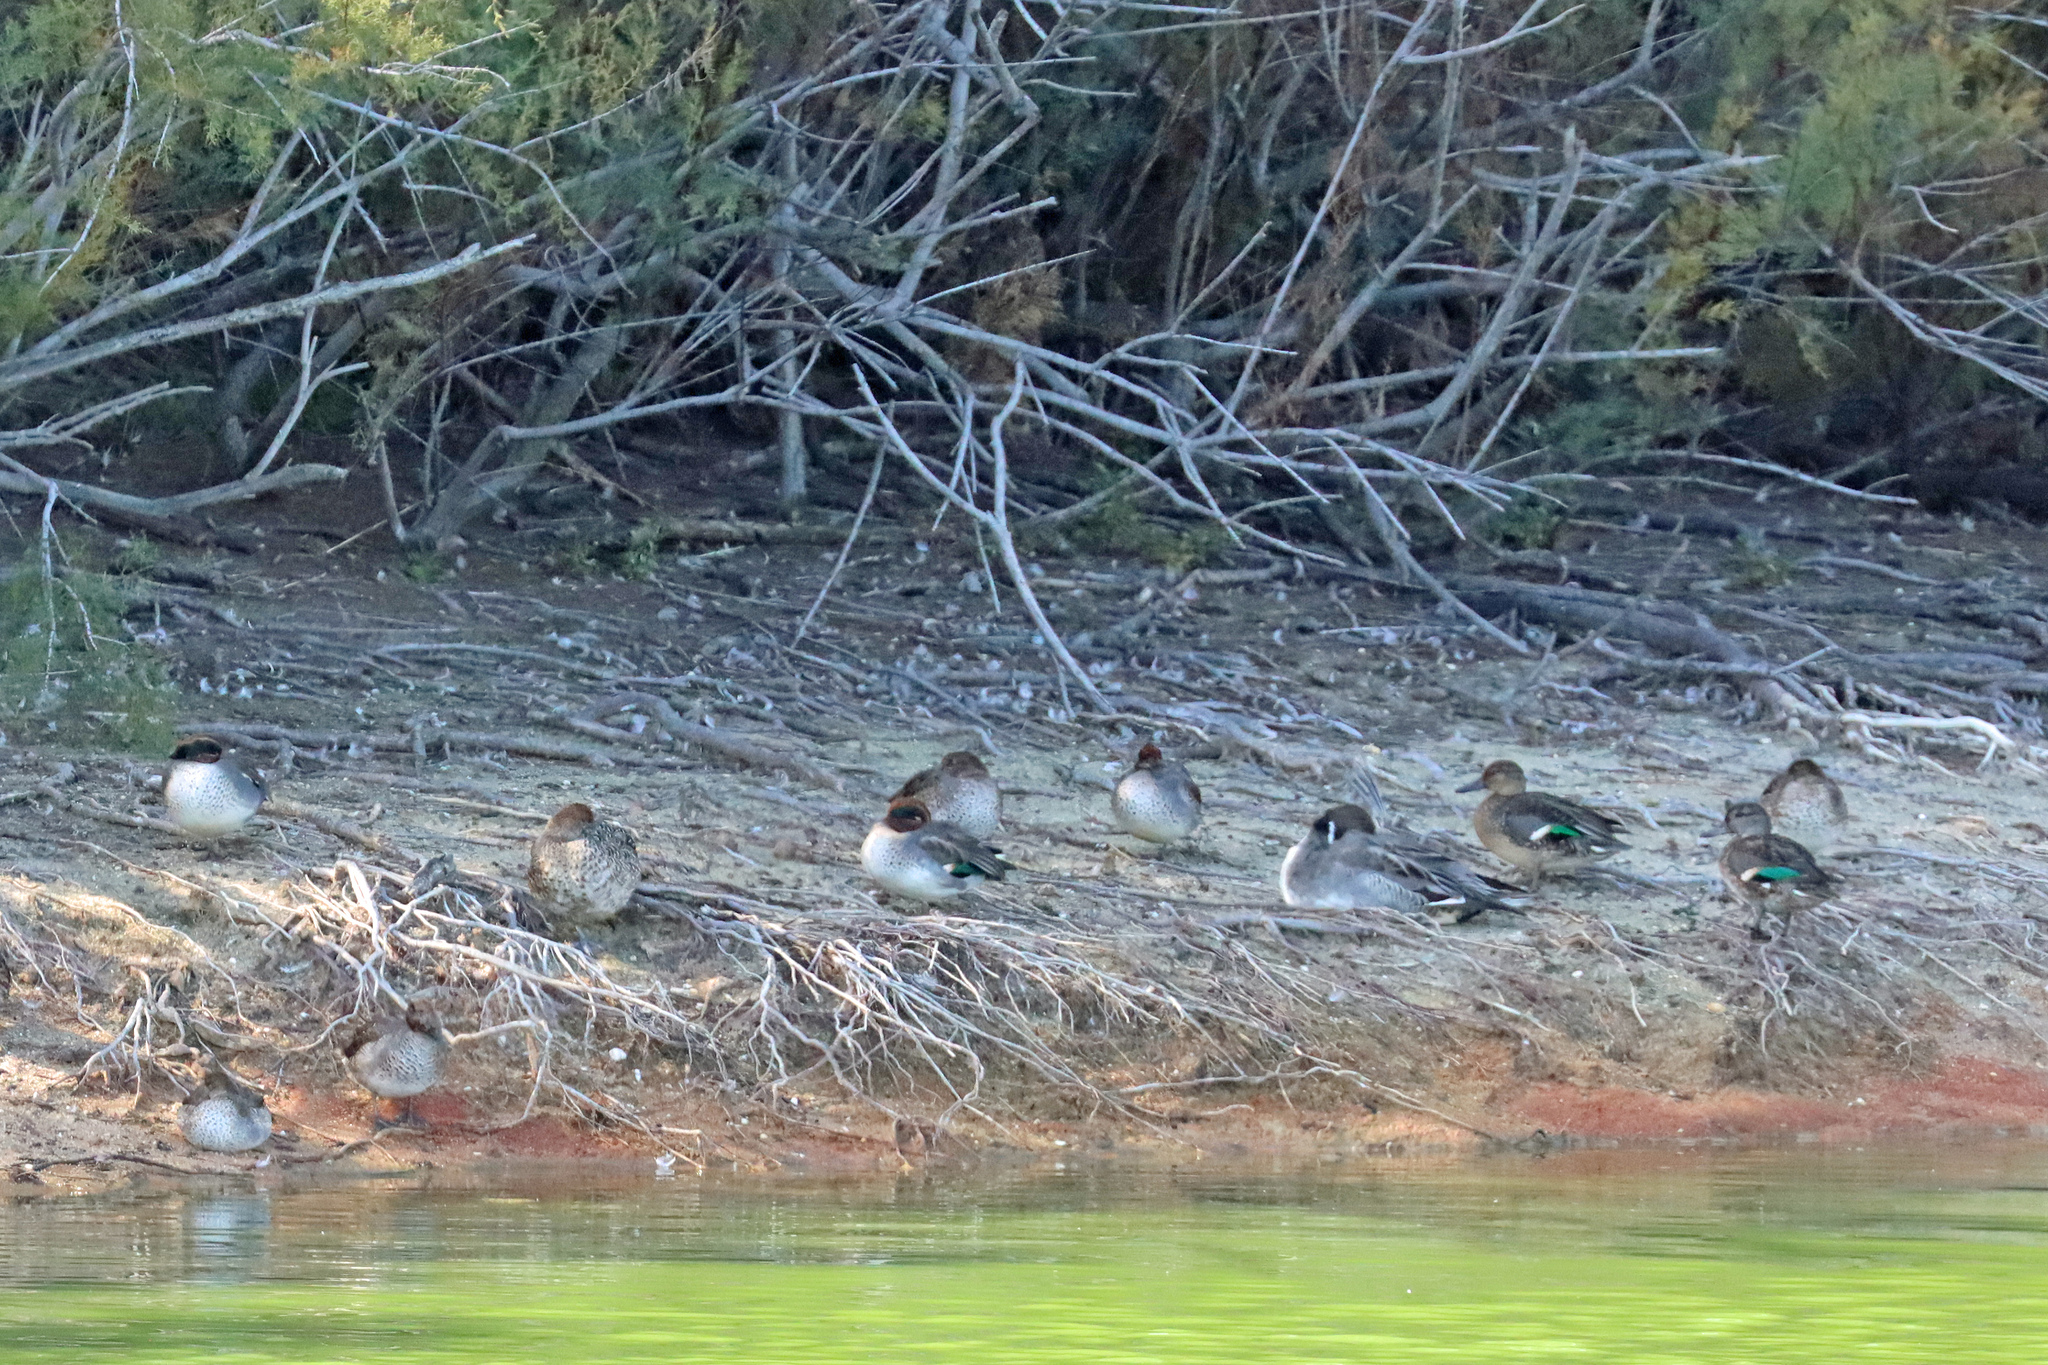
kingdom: Animalia
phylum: Chordata
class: Aves
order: Anseriformes
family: Anatidae
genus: Anas
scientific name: Anas crecca
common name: Eurasian teal
